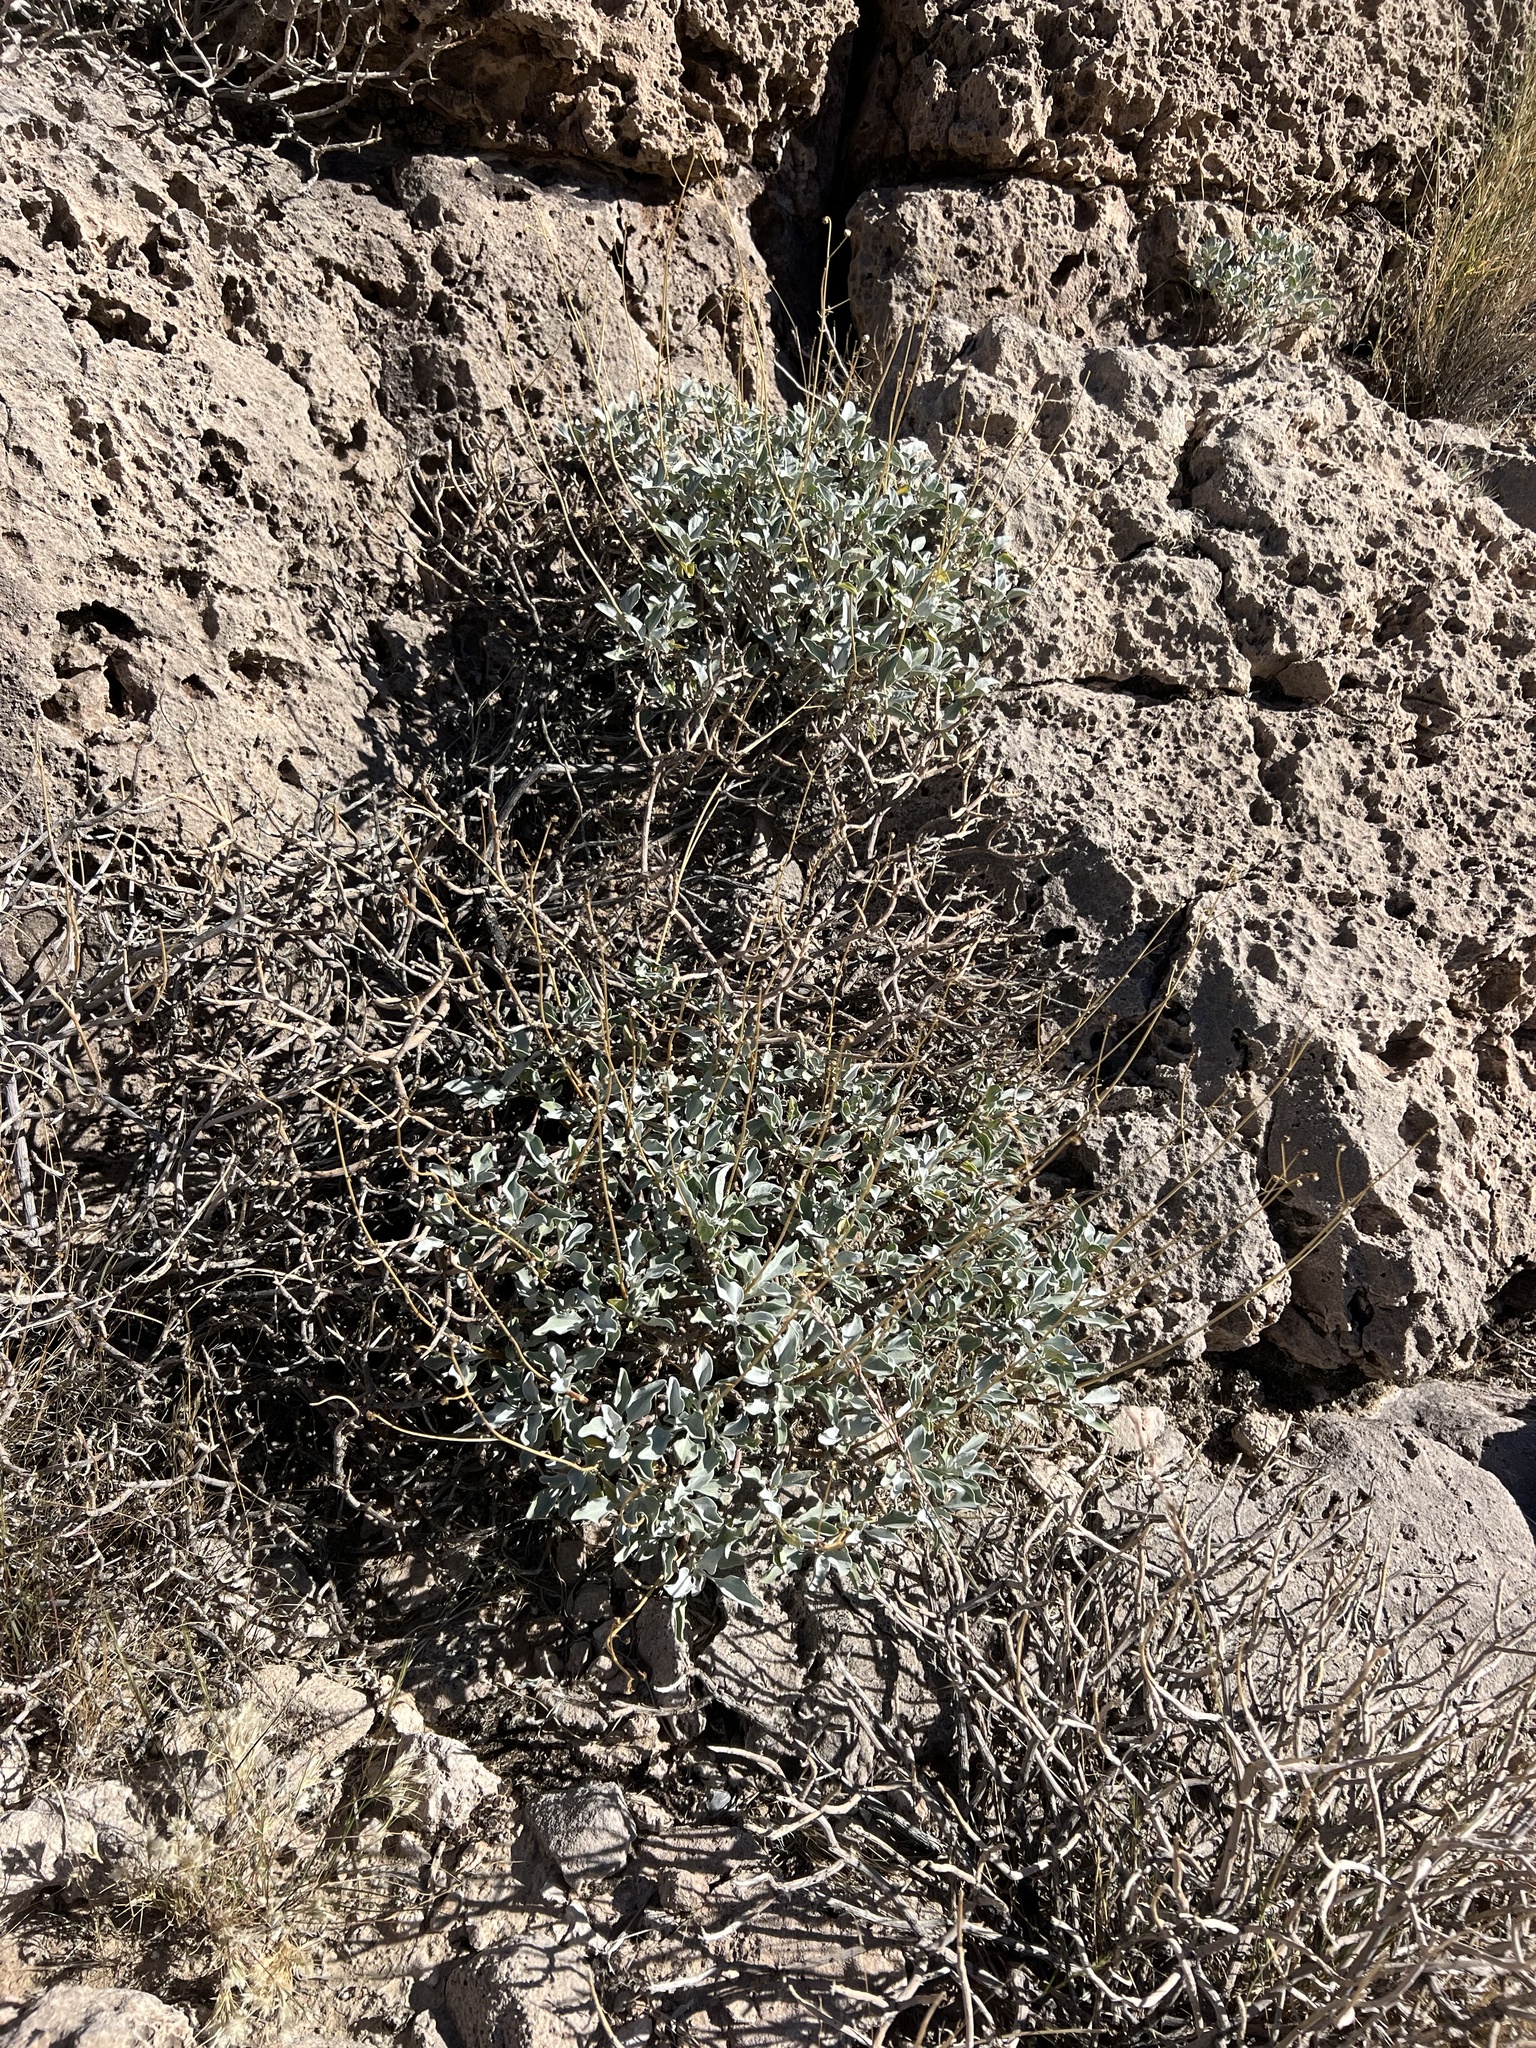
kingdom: Plantae
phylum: Tracheophyta
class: Magnoliopsida
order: Asterales
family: Asteraceae
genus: Encelia
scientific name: Encelia farinosa
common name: Brittlebush
